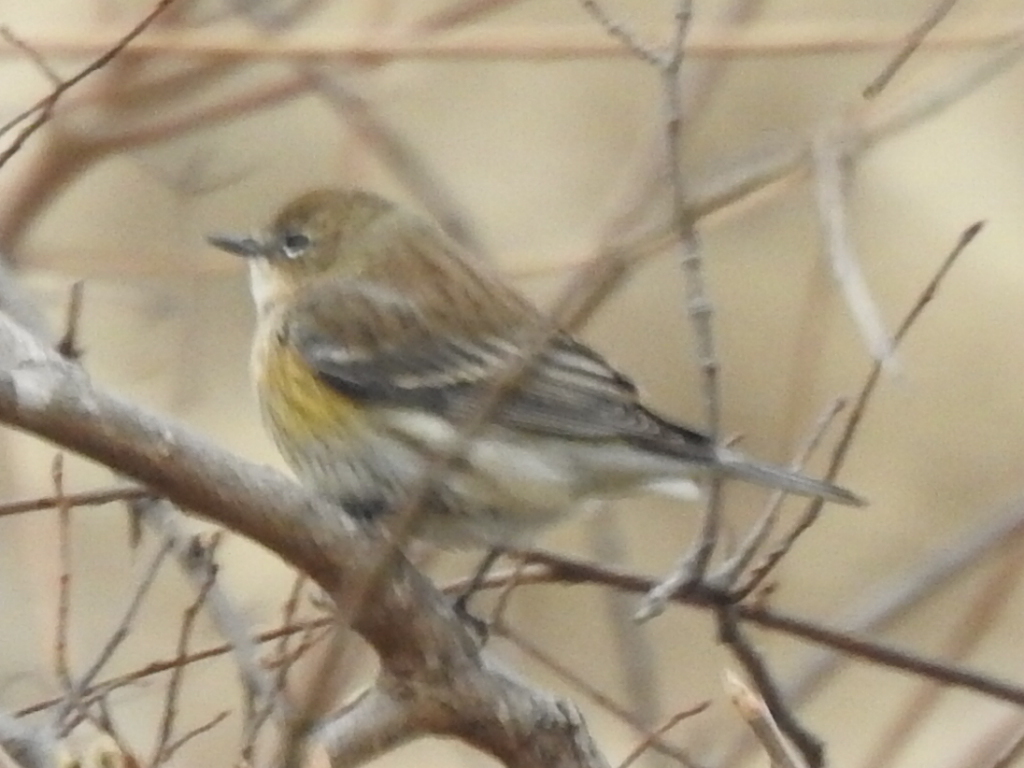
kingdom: Animalia
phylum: Chordata
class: Aves
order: Passeriformes
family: Parulidae
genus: Setophaga
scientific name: Setophaga coronata
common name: Myrtle warbler
